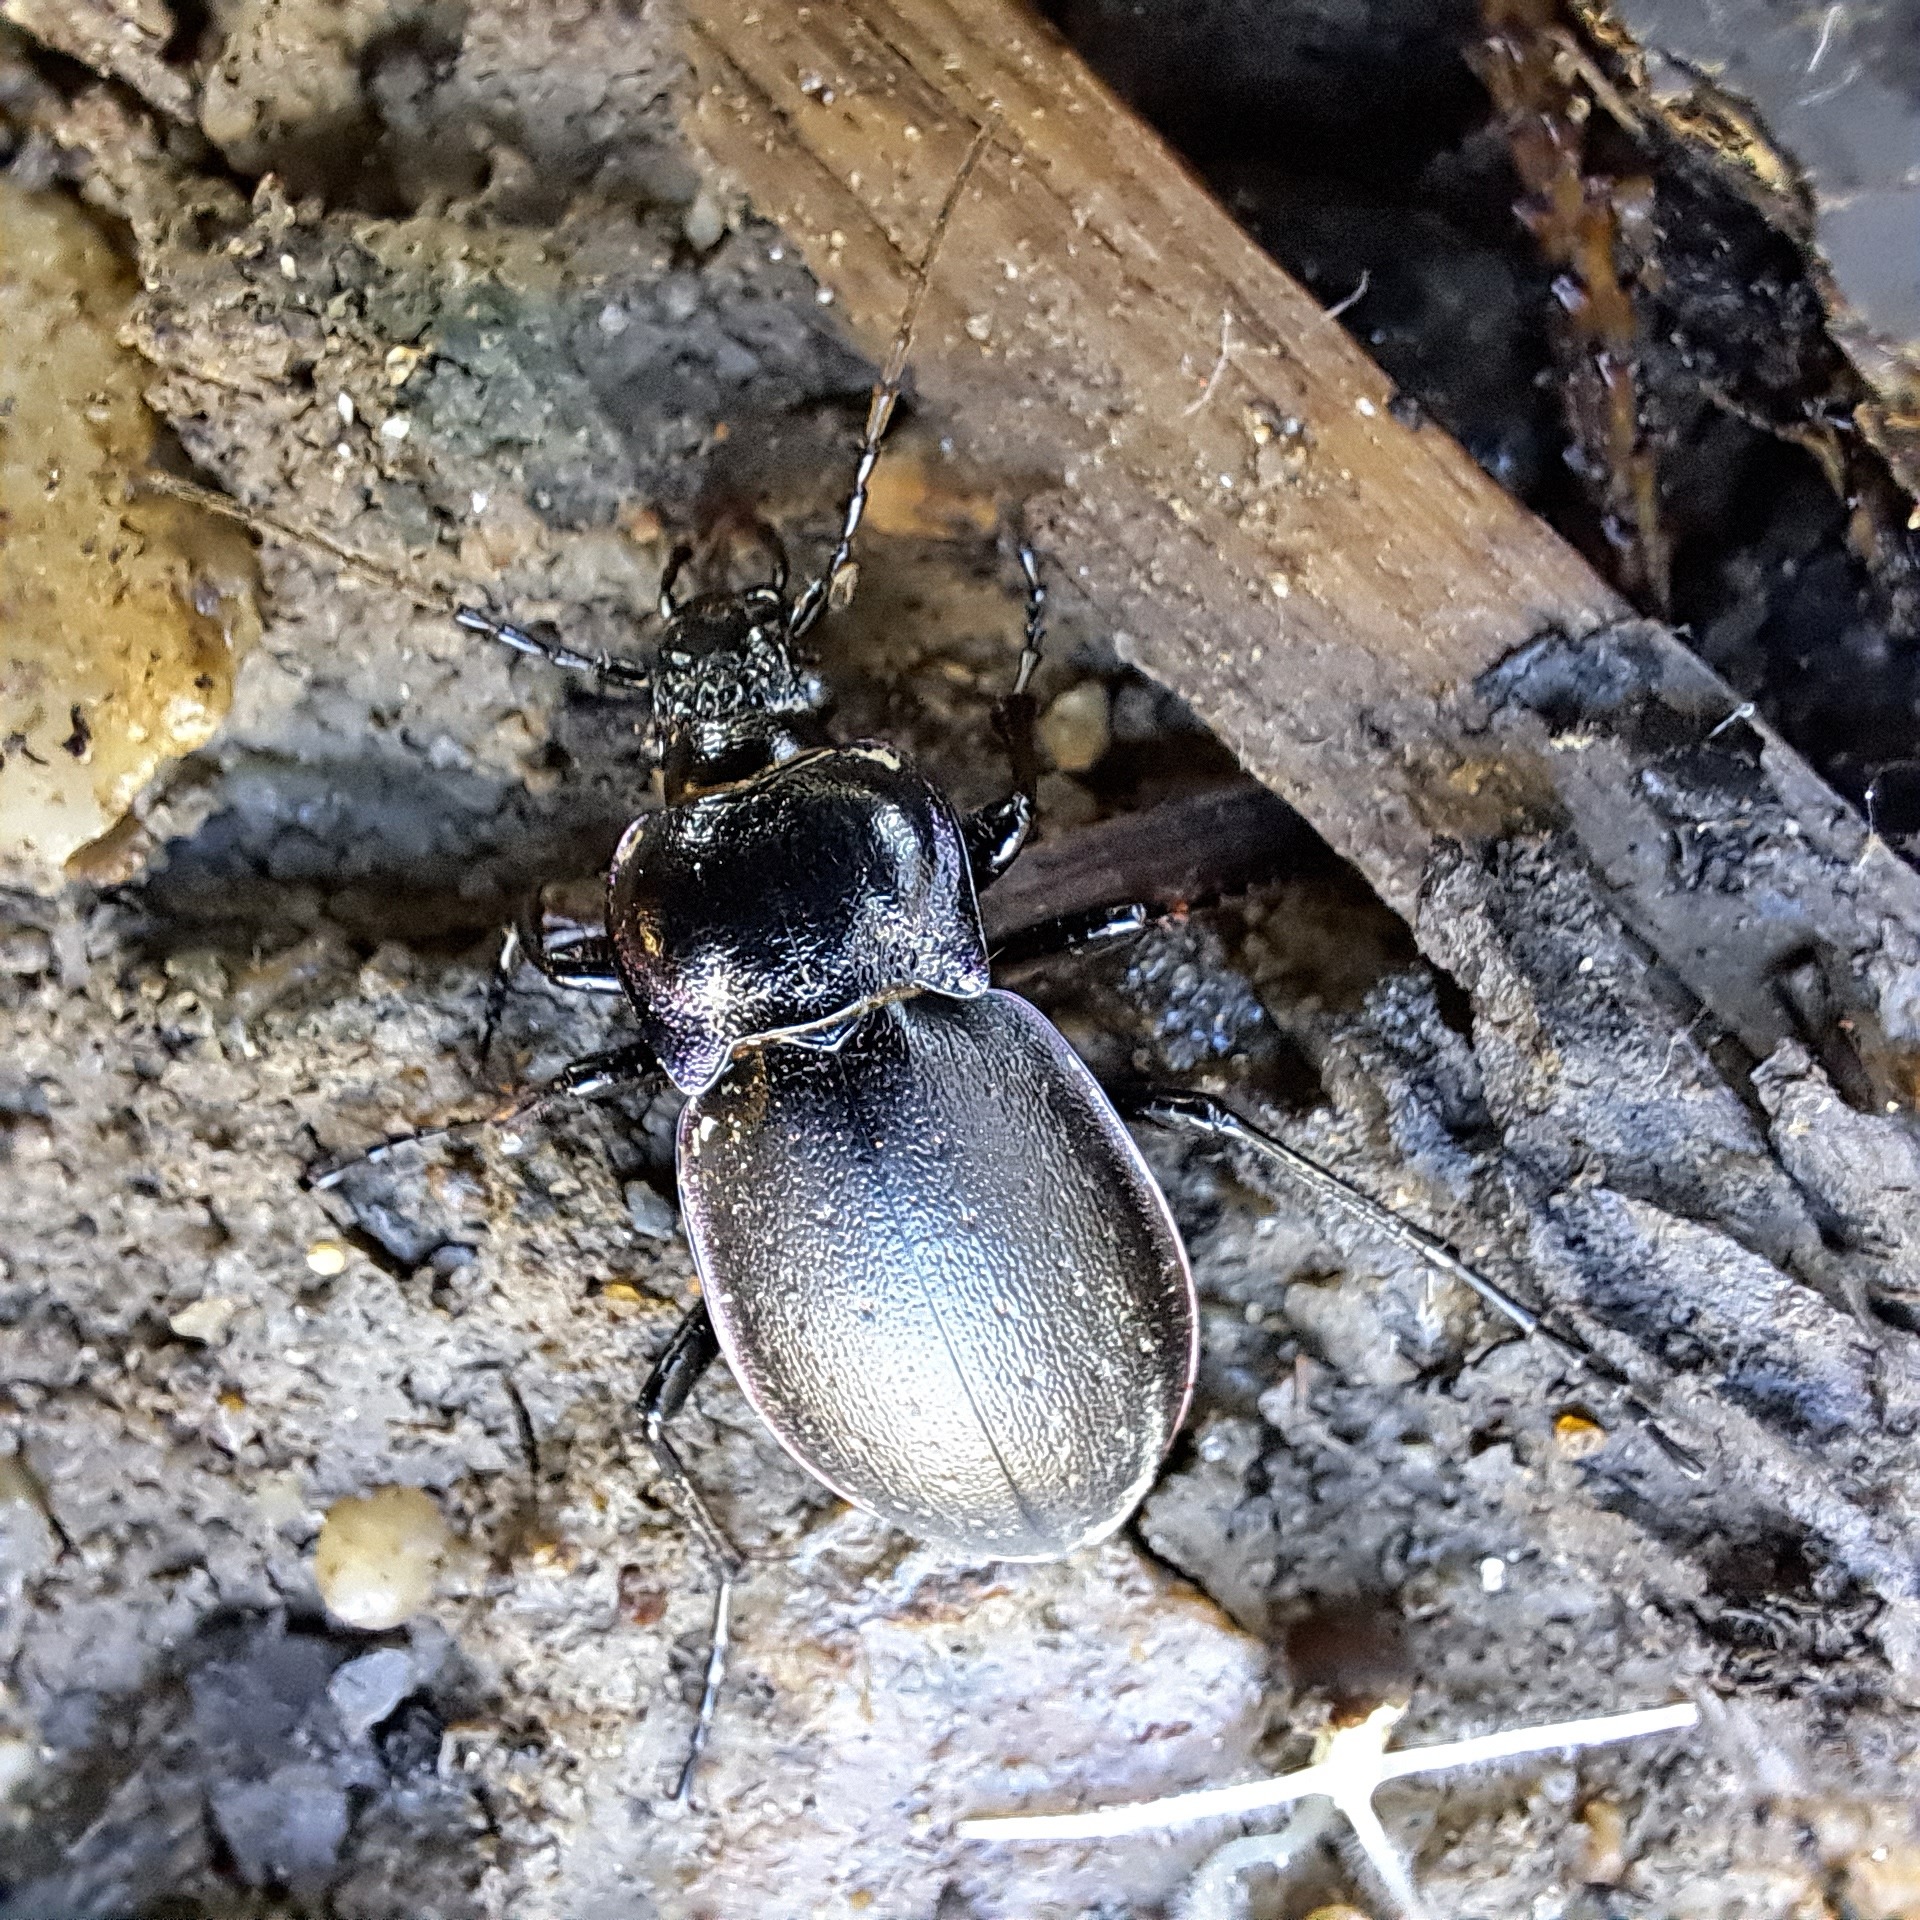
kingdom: Animalia
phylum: Arthropoda
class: Insecta
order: Coleoptera
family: Carabidae
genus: Carabus
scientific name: Carabus nemoralis
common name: European ground beetle
